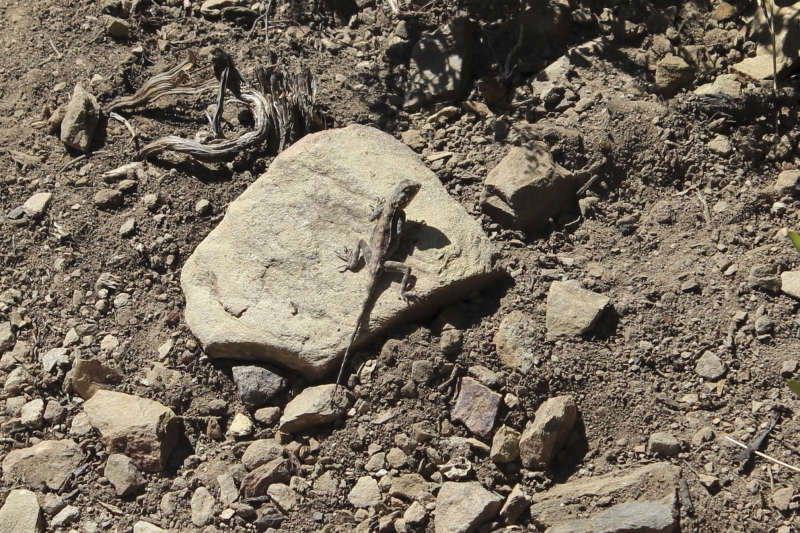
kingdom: Animalia
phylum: Chordata
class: Squamata
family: Agamidae
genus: Agama
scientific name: Agama atra
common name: Southern african rock agama
